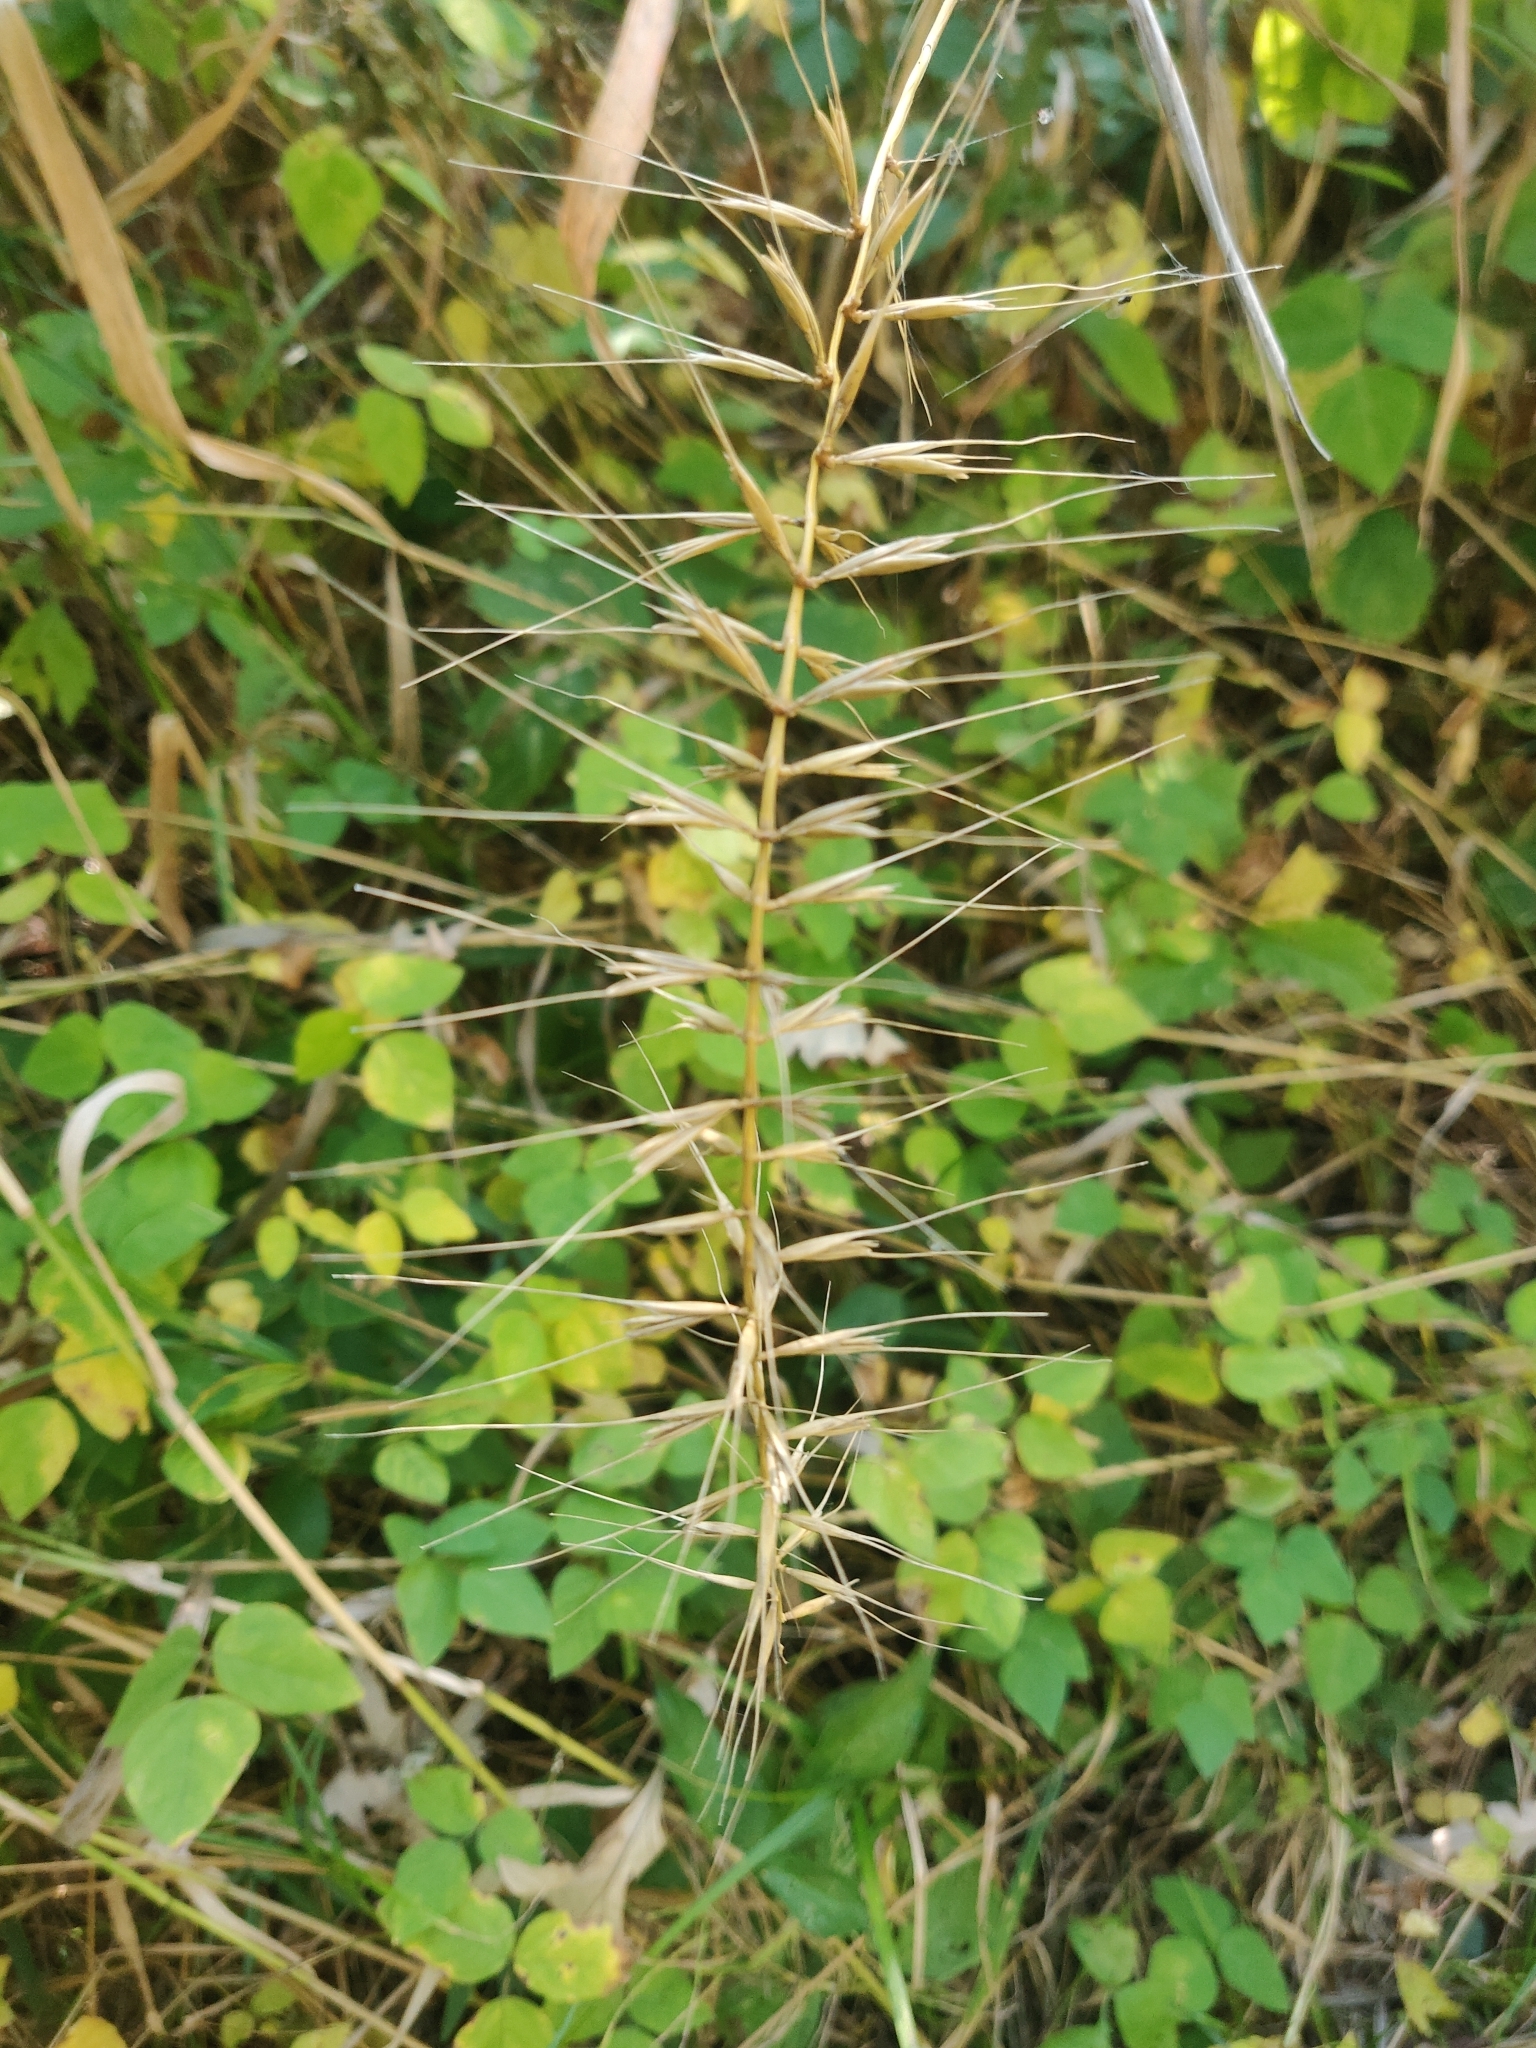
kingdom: Plantae
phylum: Tracheophyta
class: Liliopsida
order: Poales
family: Poaceae
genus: Elymus
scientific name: Elymus hystrix
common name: Bottlebrush grass
